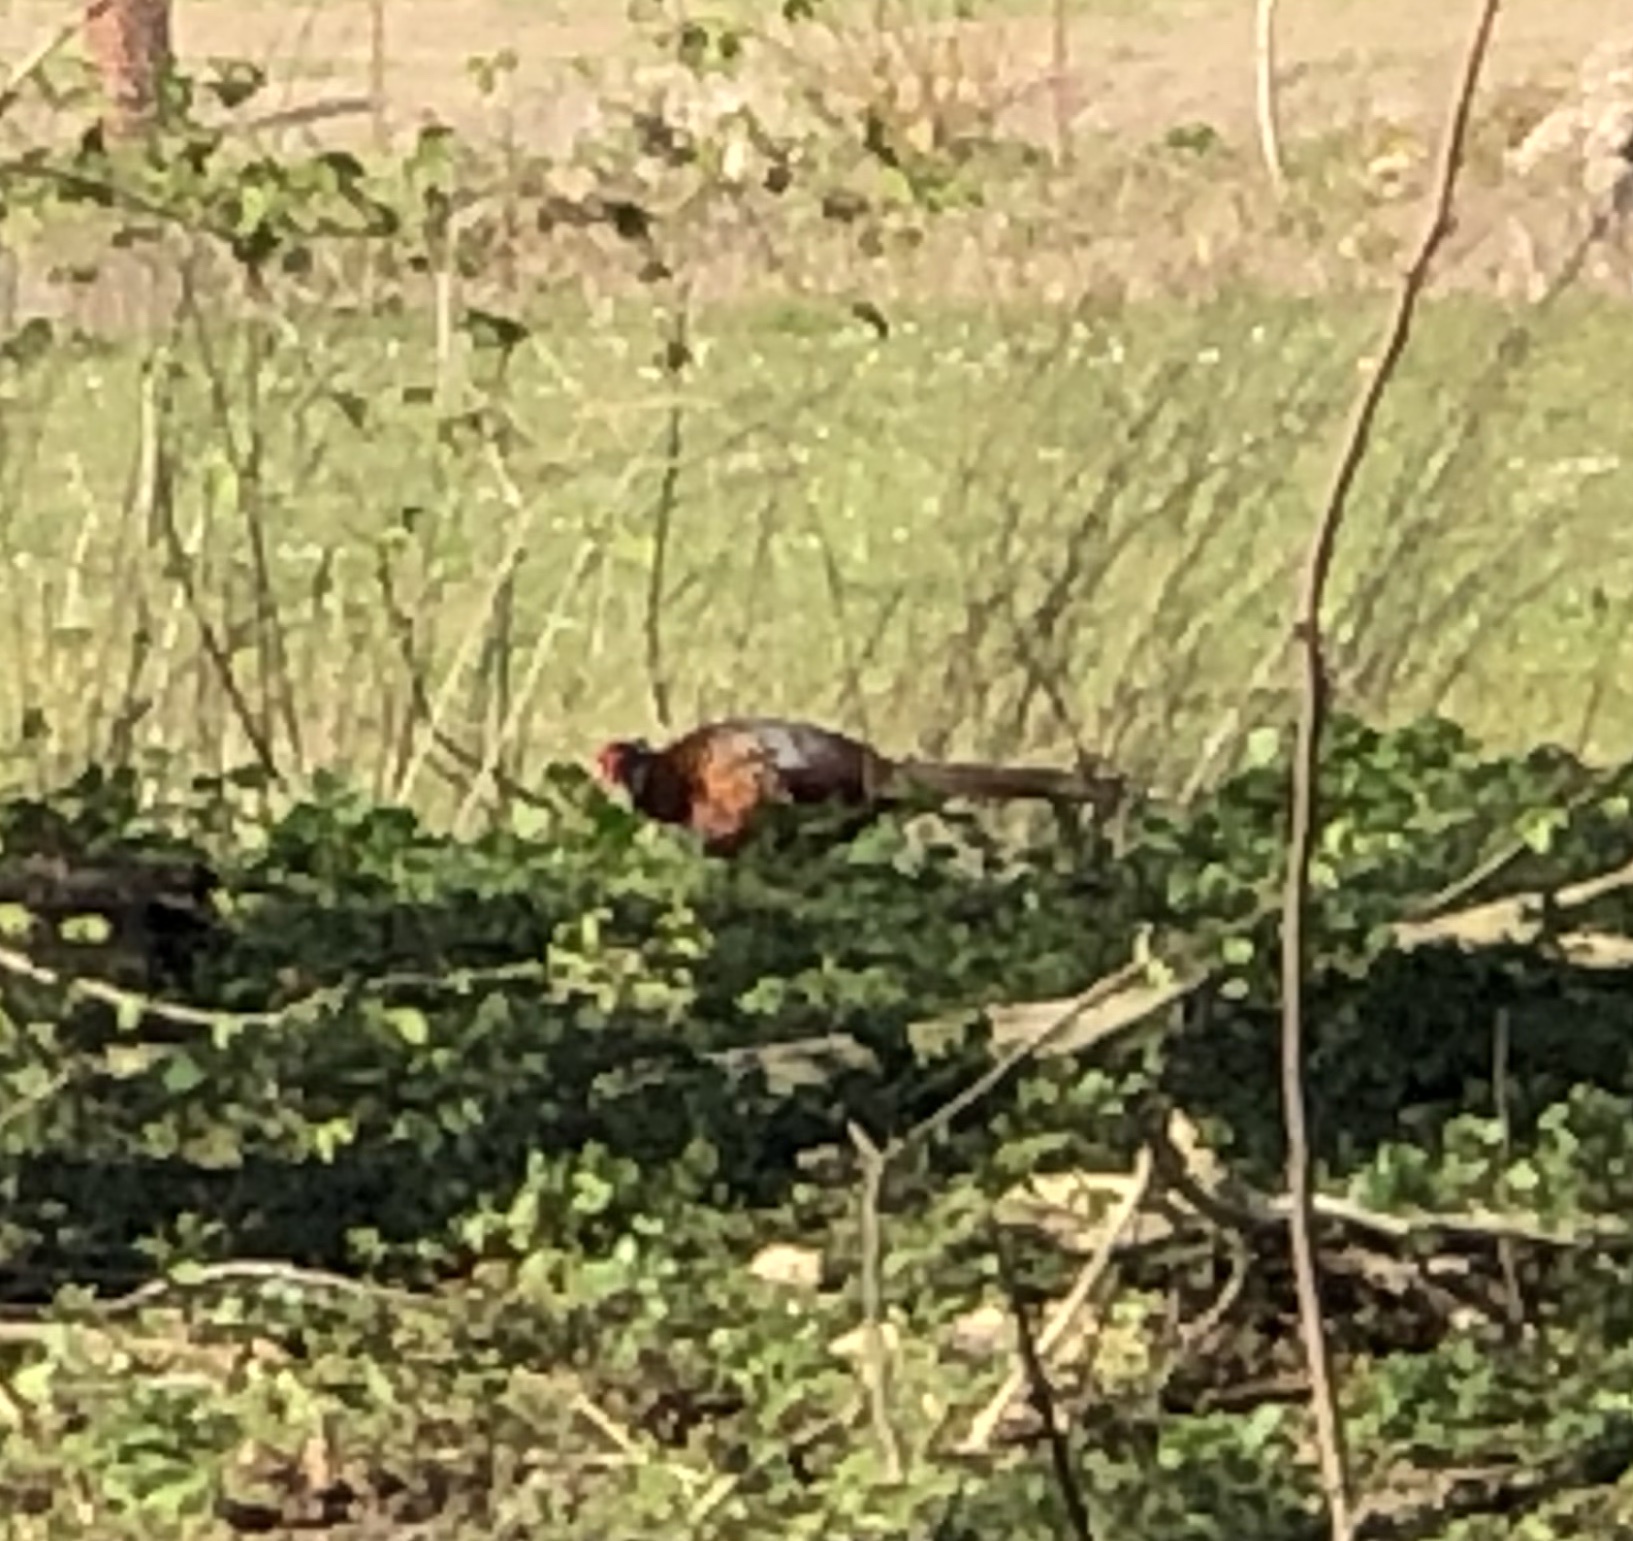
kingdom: Animalia
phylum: Chordata
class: Aves
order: Galliformes
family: Phasianidae
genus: Phasianus
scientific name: Phasianus colchicus
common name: Common pheasant
